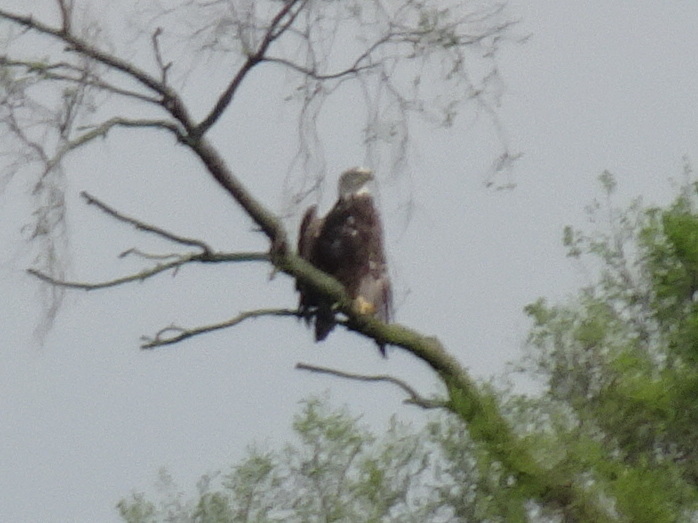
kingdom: Animalia
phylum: Chordata
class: Aves
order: Accipitriformes
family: Accipitridae
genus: Haliaeetus
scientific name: Haliaeetus leucocephalus
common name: Bald eagle
